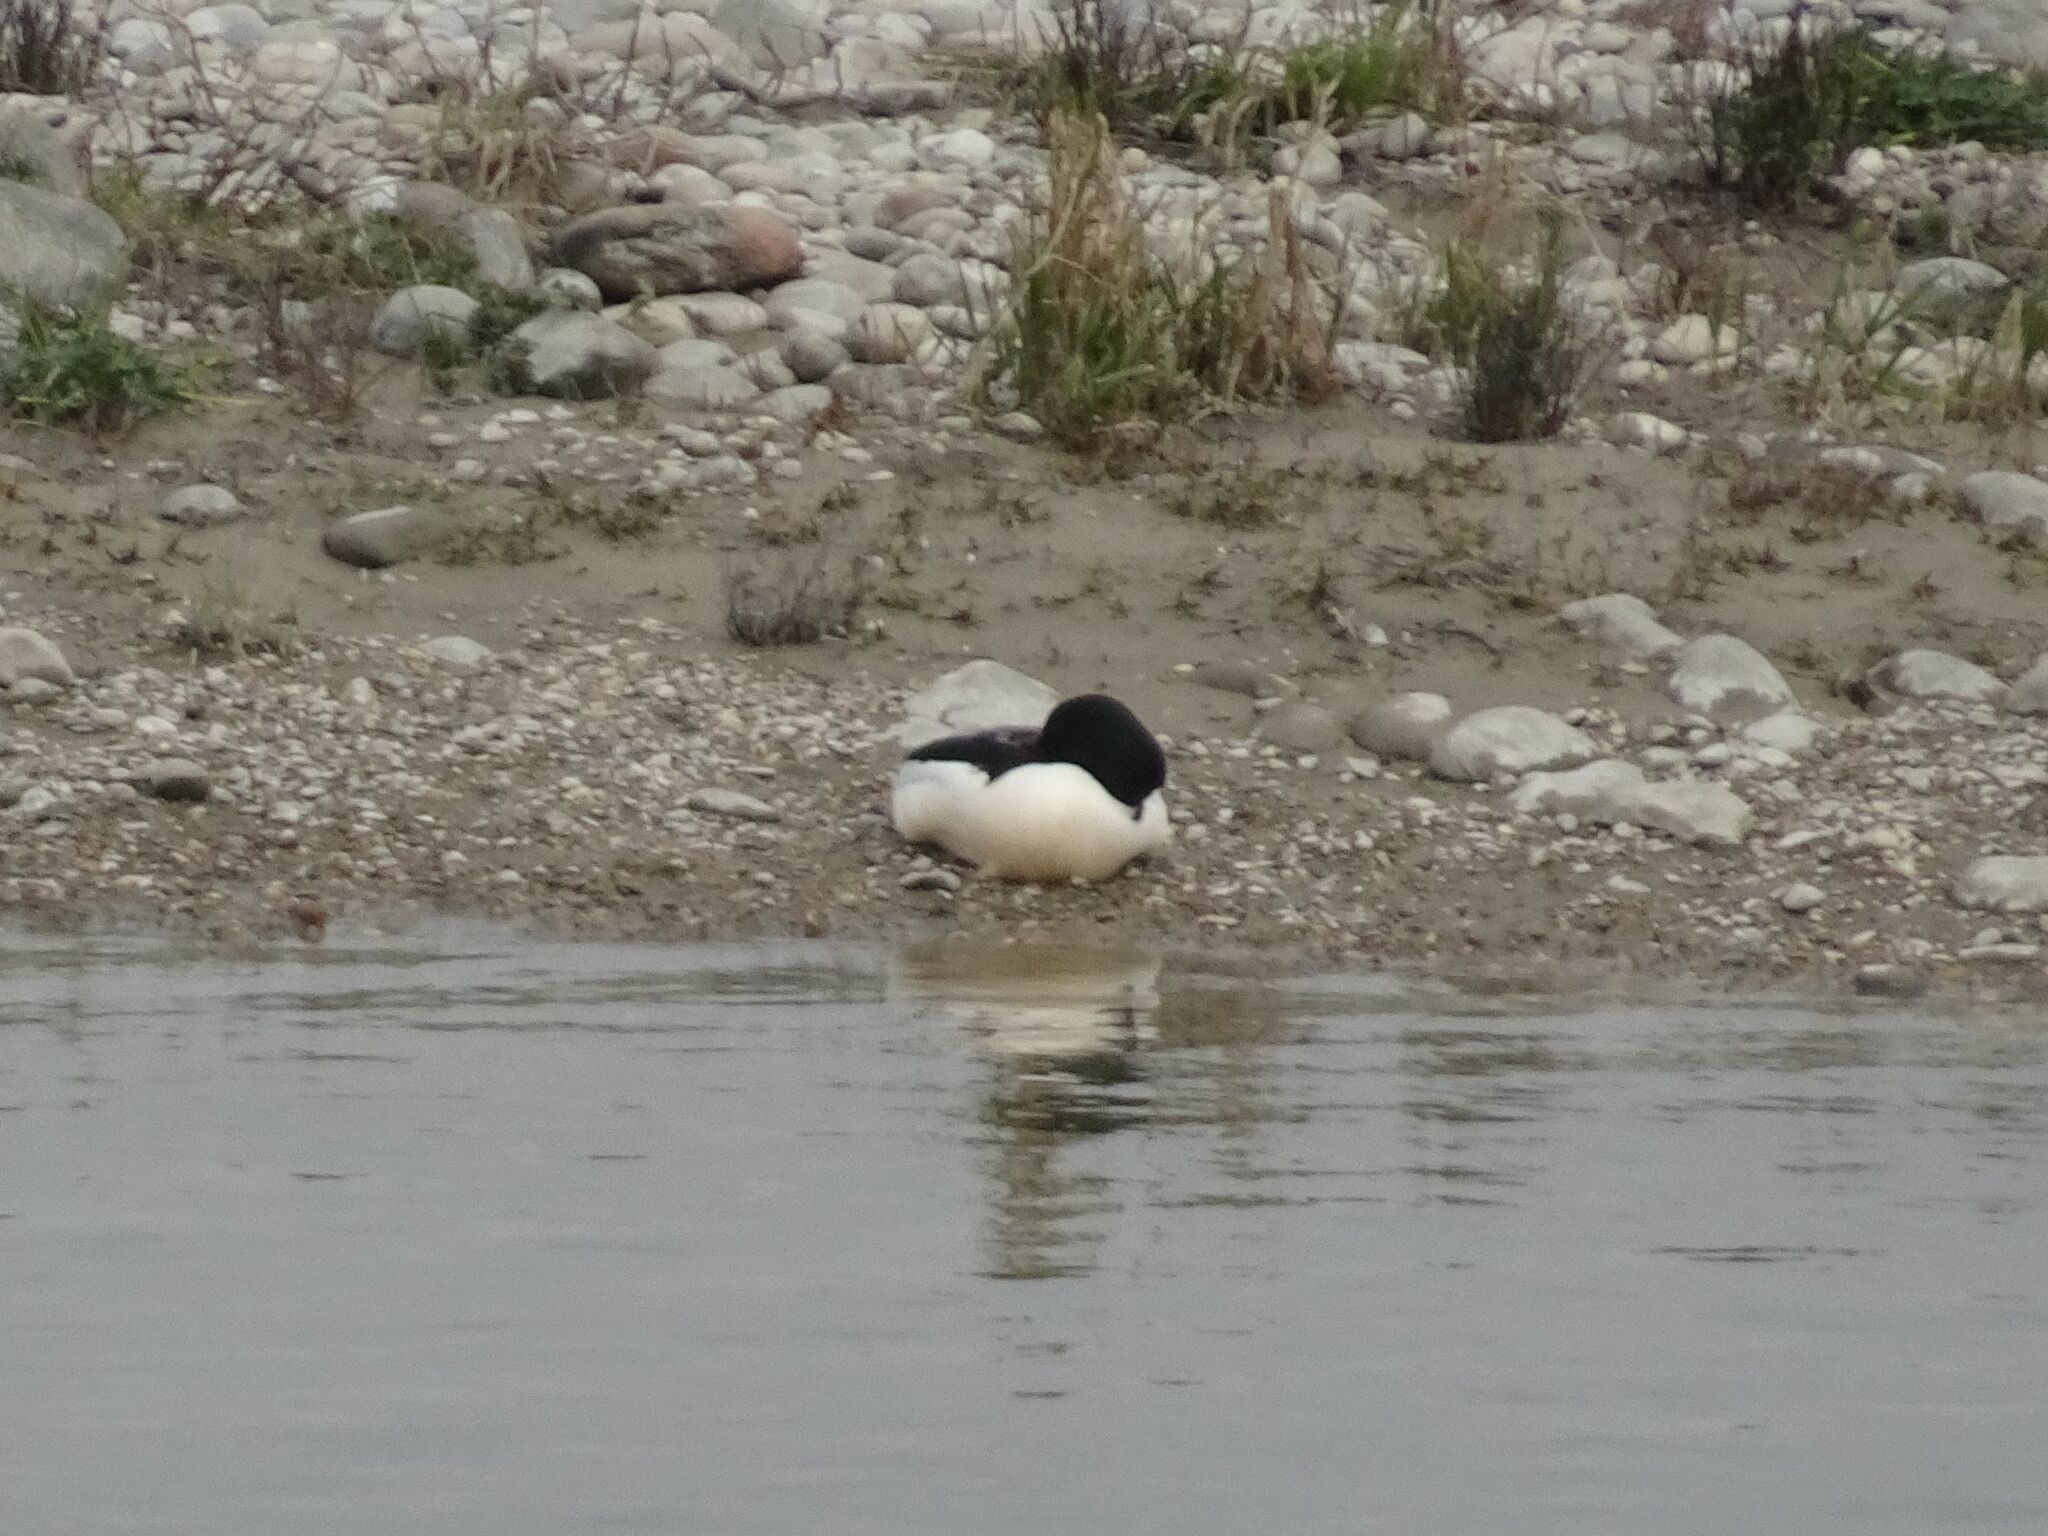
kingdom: Animalia
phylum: Chordata
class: Aves
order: Anseriformes
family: Anatidae
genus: Mergus
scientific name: Mergus merganser
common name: Common merganser
